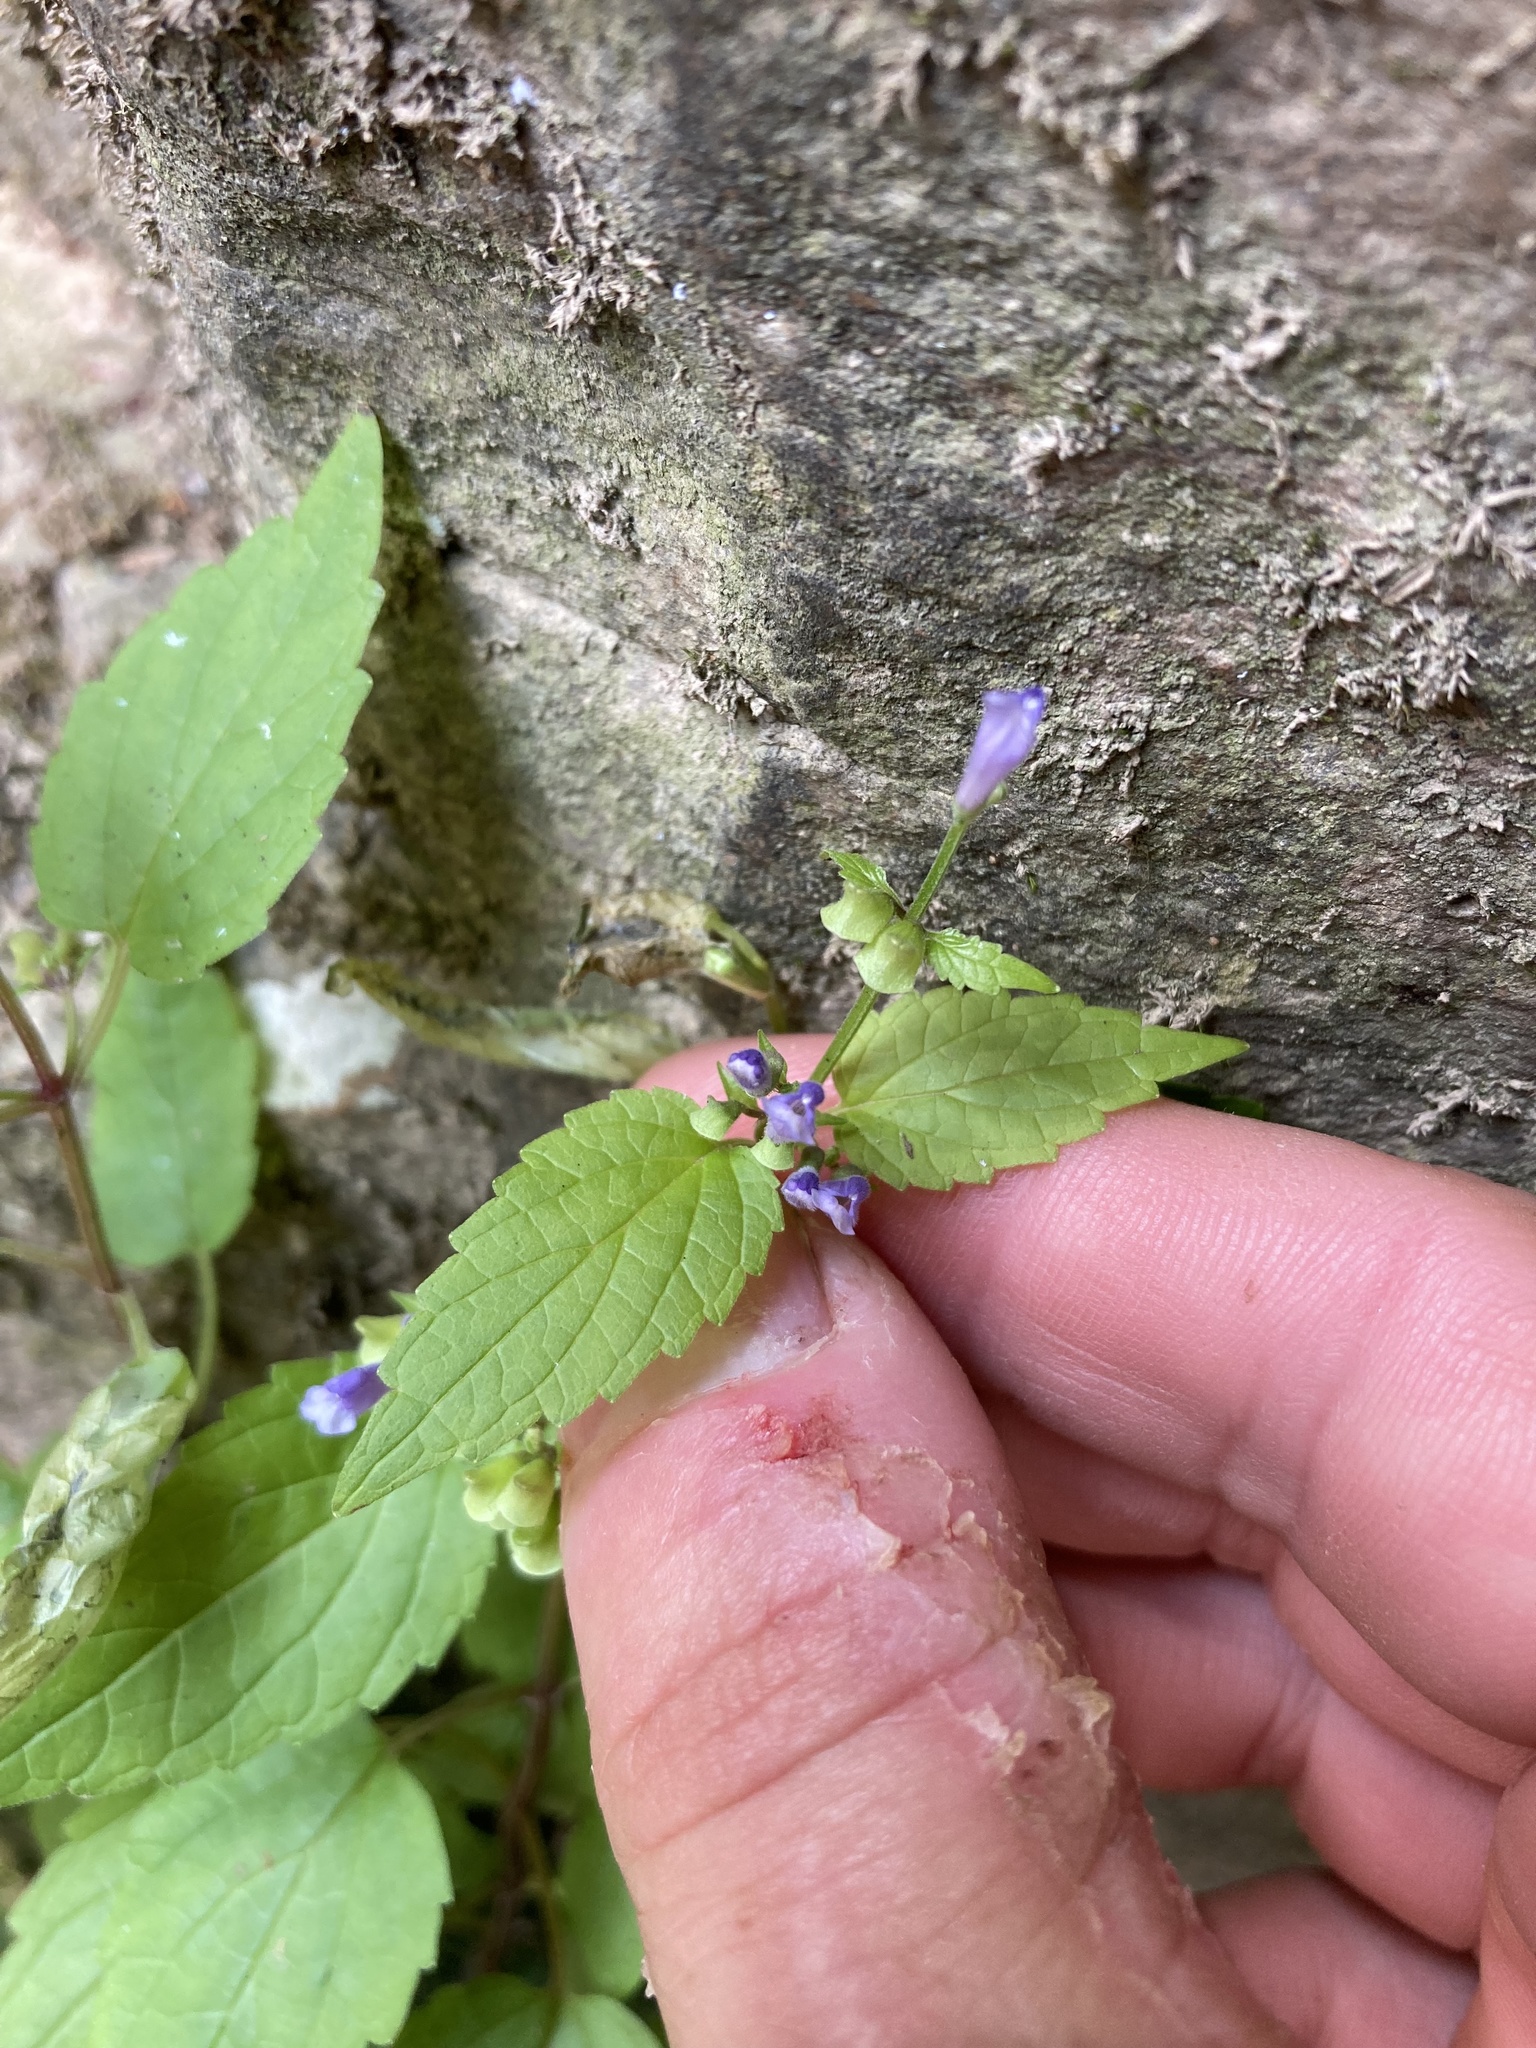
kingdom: Plantae
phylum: Tracheophyta
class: Magnoliopsida
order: Lamiales
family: Lamiaceae
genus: Scutellaria
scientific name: Scutellaria lateriflora
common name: Blue skullcap
